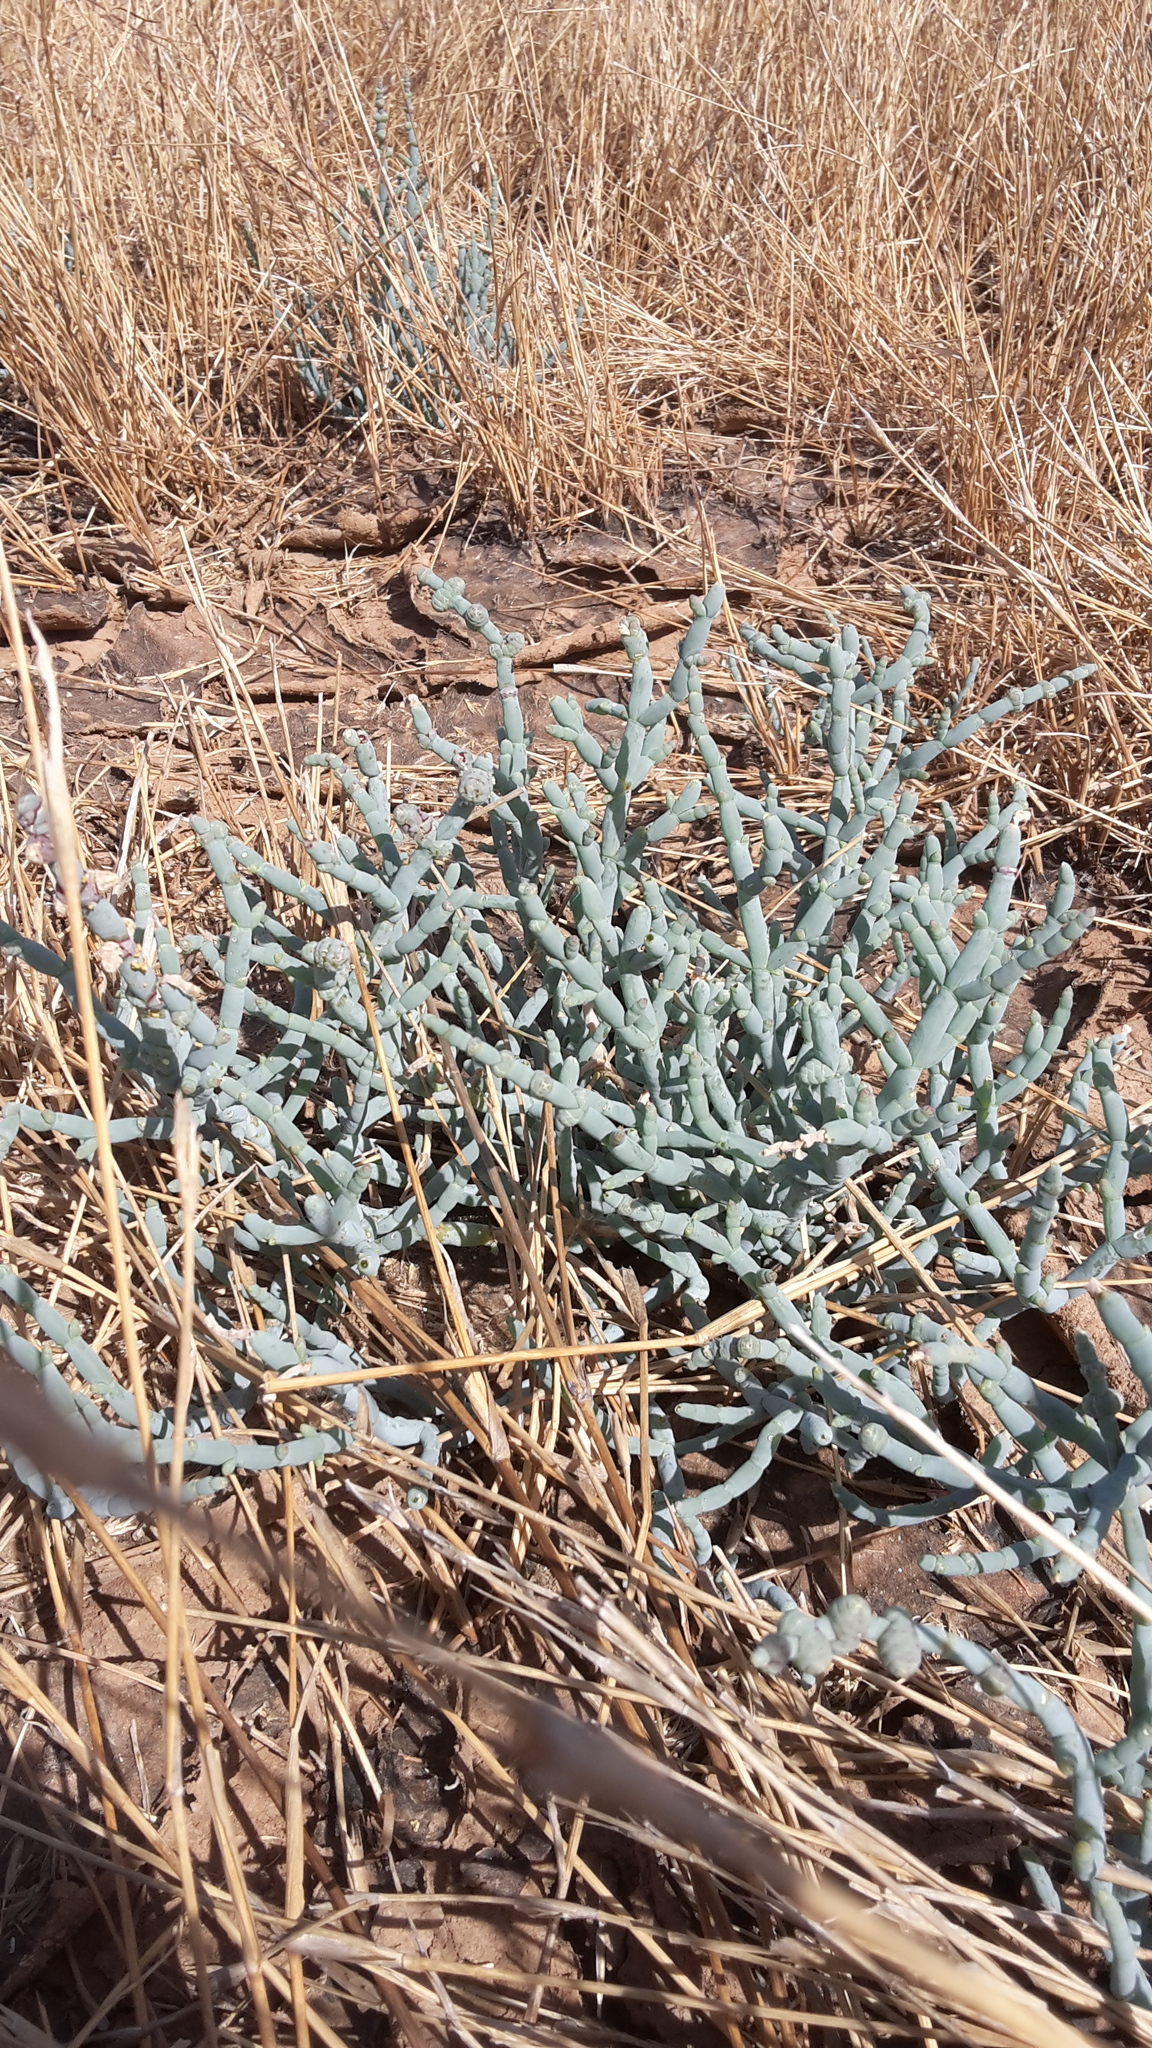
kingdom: Plantae
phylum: Tracheophyta
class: Magnoliopsida
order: Caryophyllales
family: Amaranthaceae
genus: Tecticornia
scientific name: Tecticornia verrucosa
